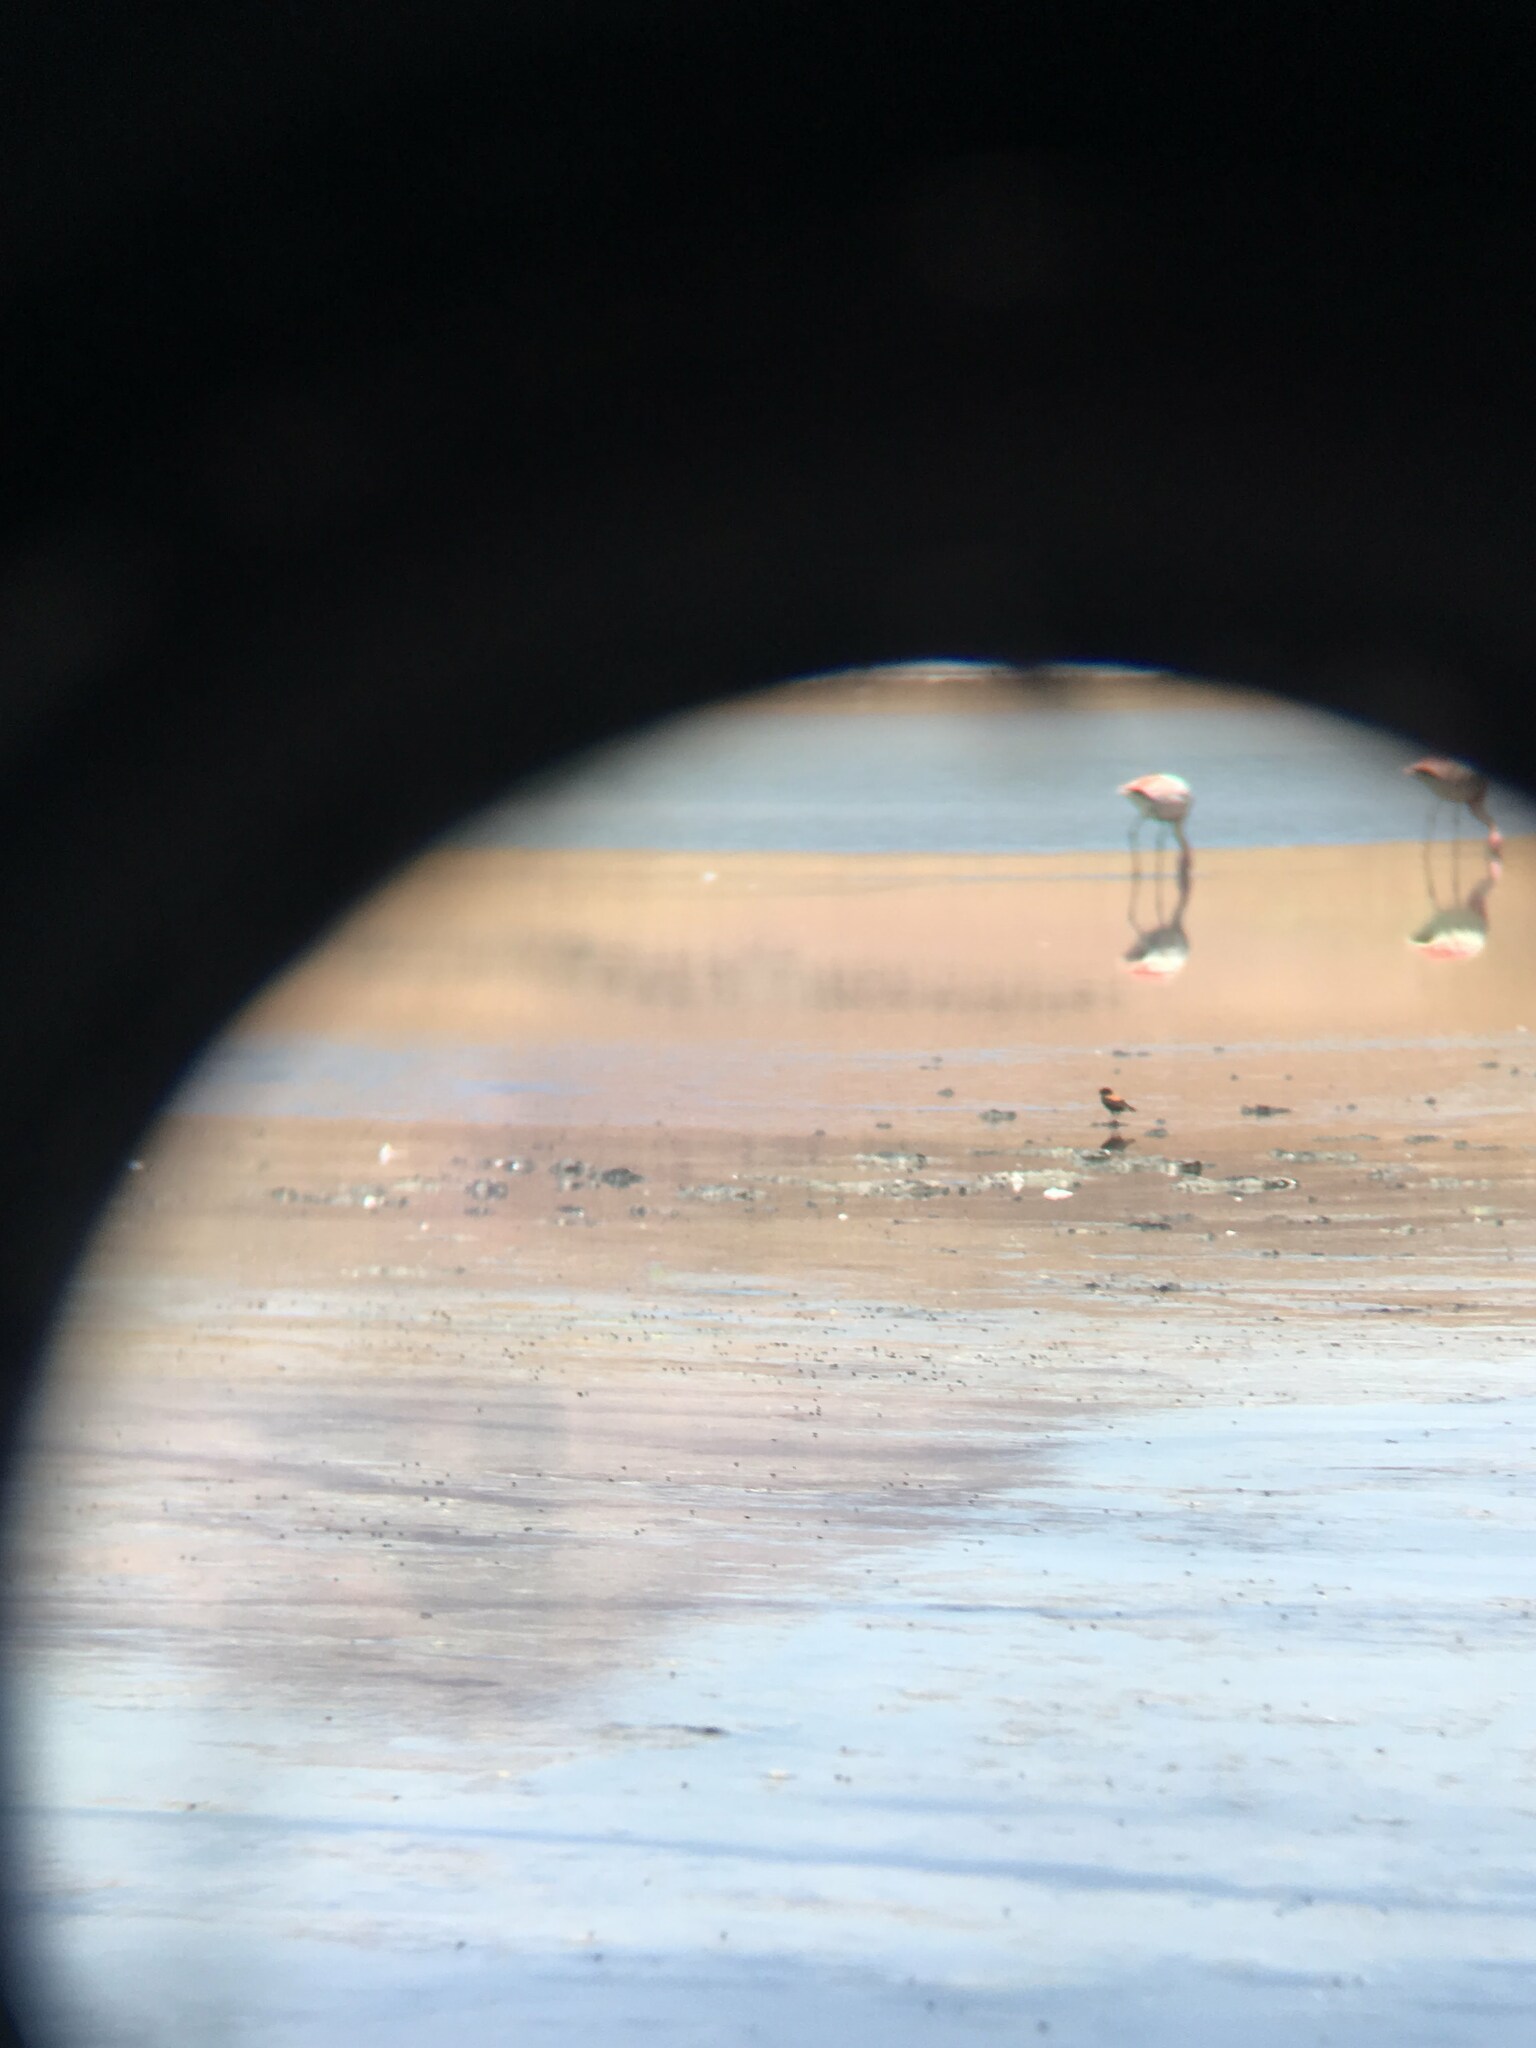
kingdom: Animalia
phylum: Chordata
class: Aves
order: Passeriformes
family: Tyrannidae
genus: Lessonia
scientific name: Lessonia oreas
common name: Andean negrito
